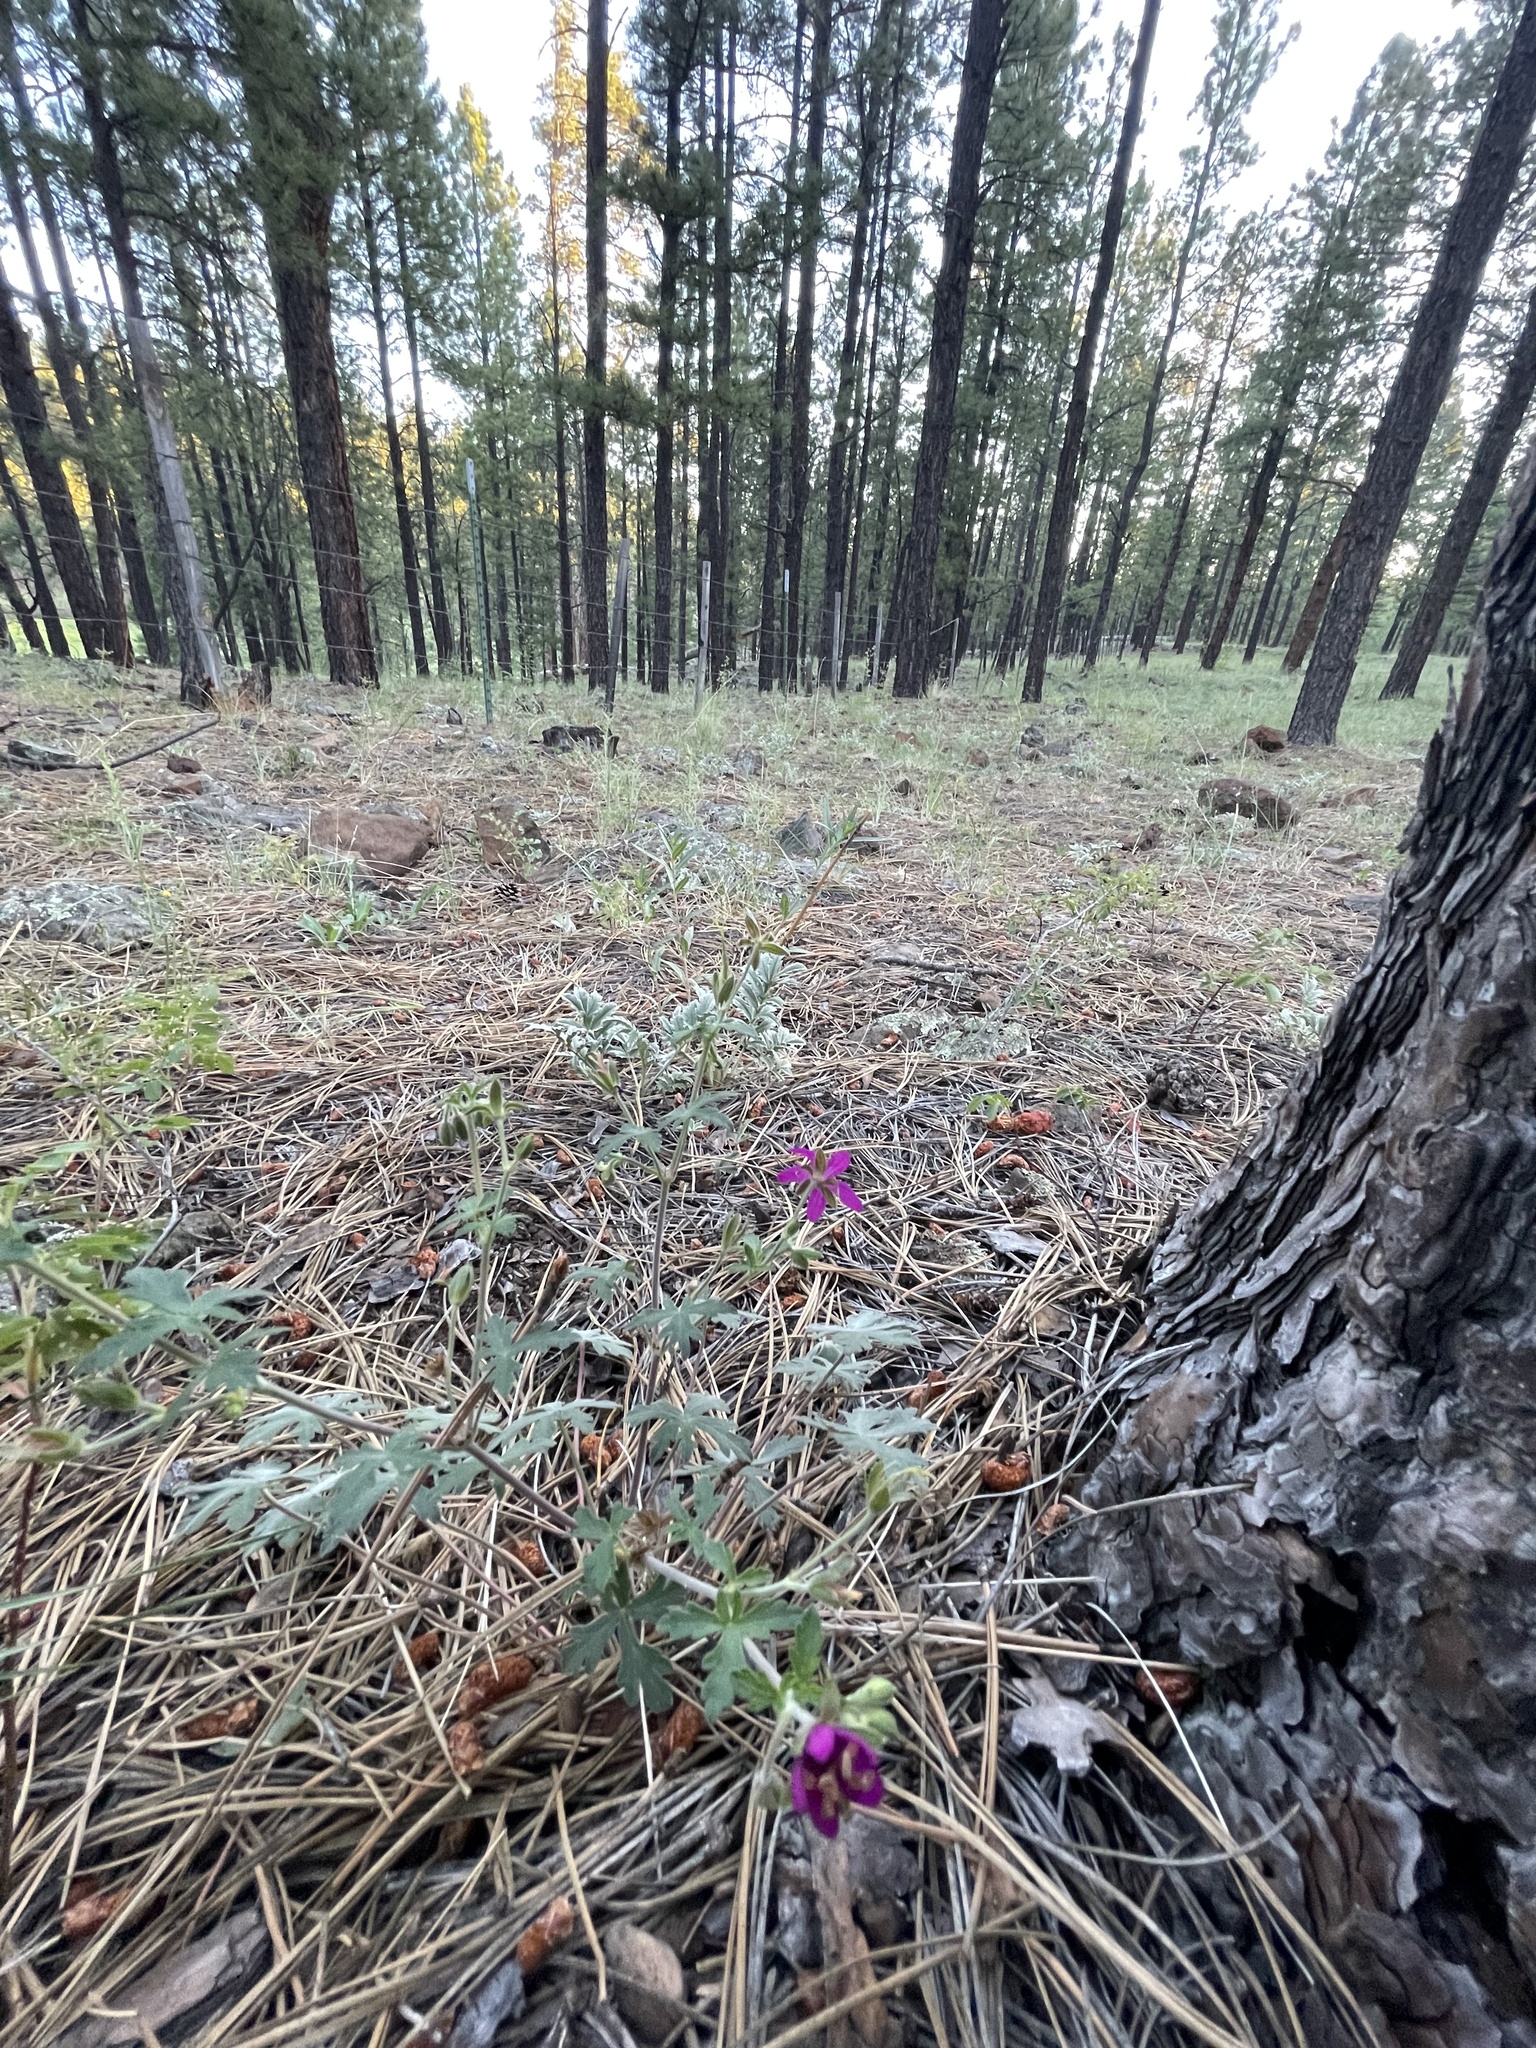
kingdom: Plantae
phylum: Tracheophyta
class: Magnoliopsida
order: Geraniales
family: Geraniaceae
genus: Geranium
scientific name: Geranium caespitosum
